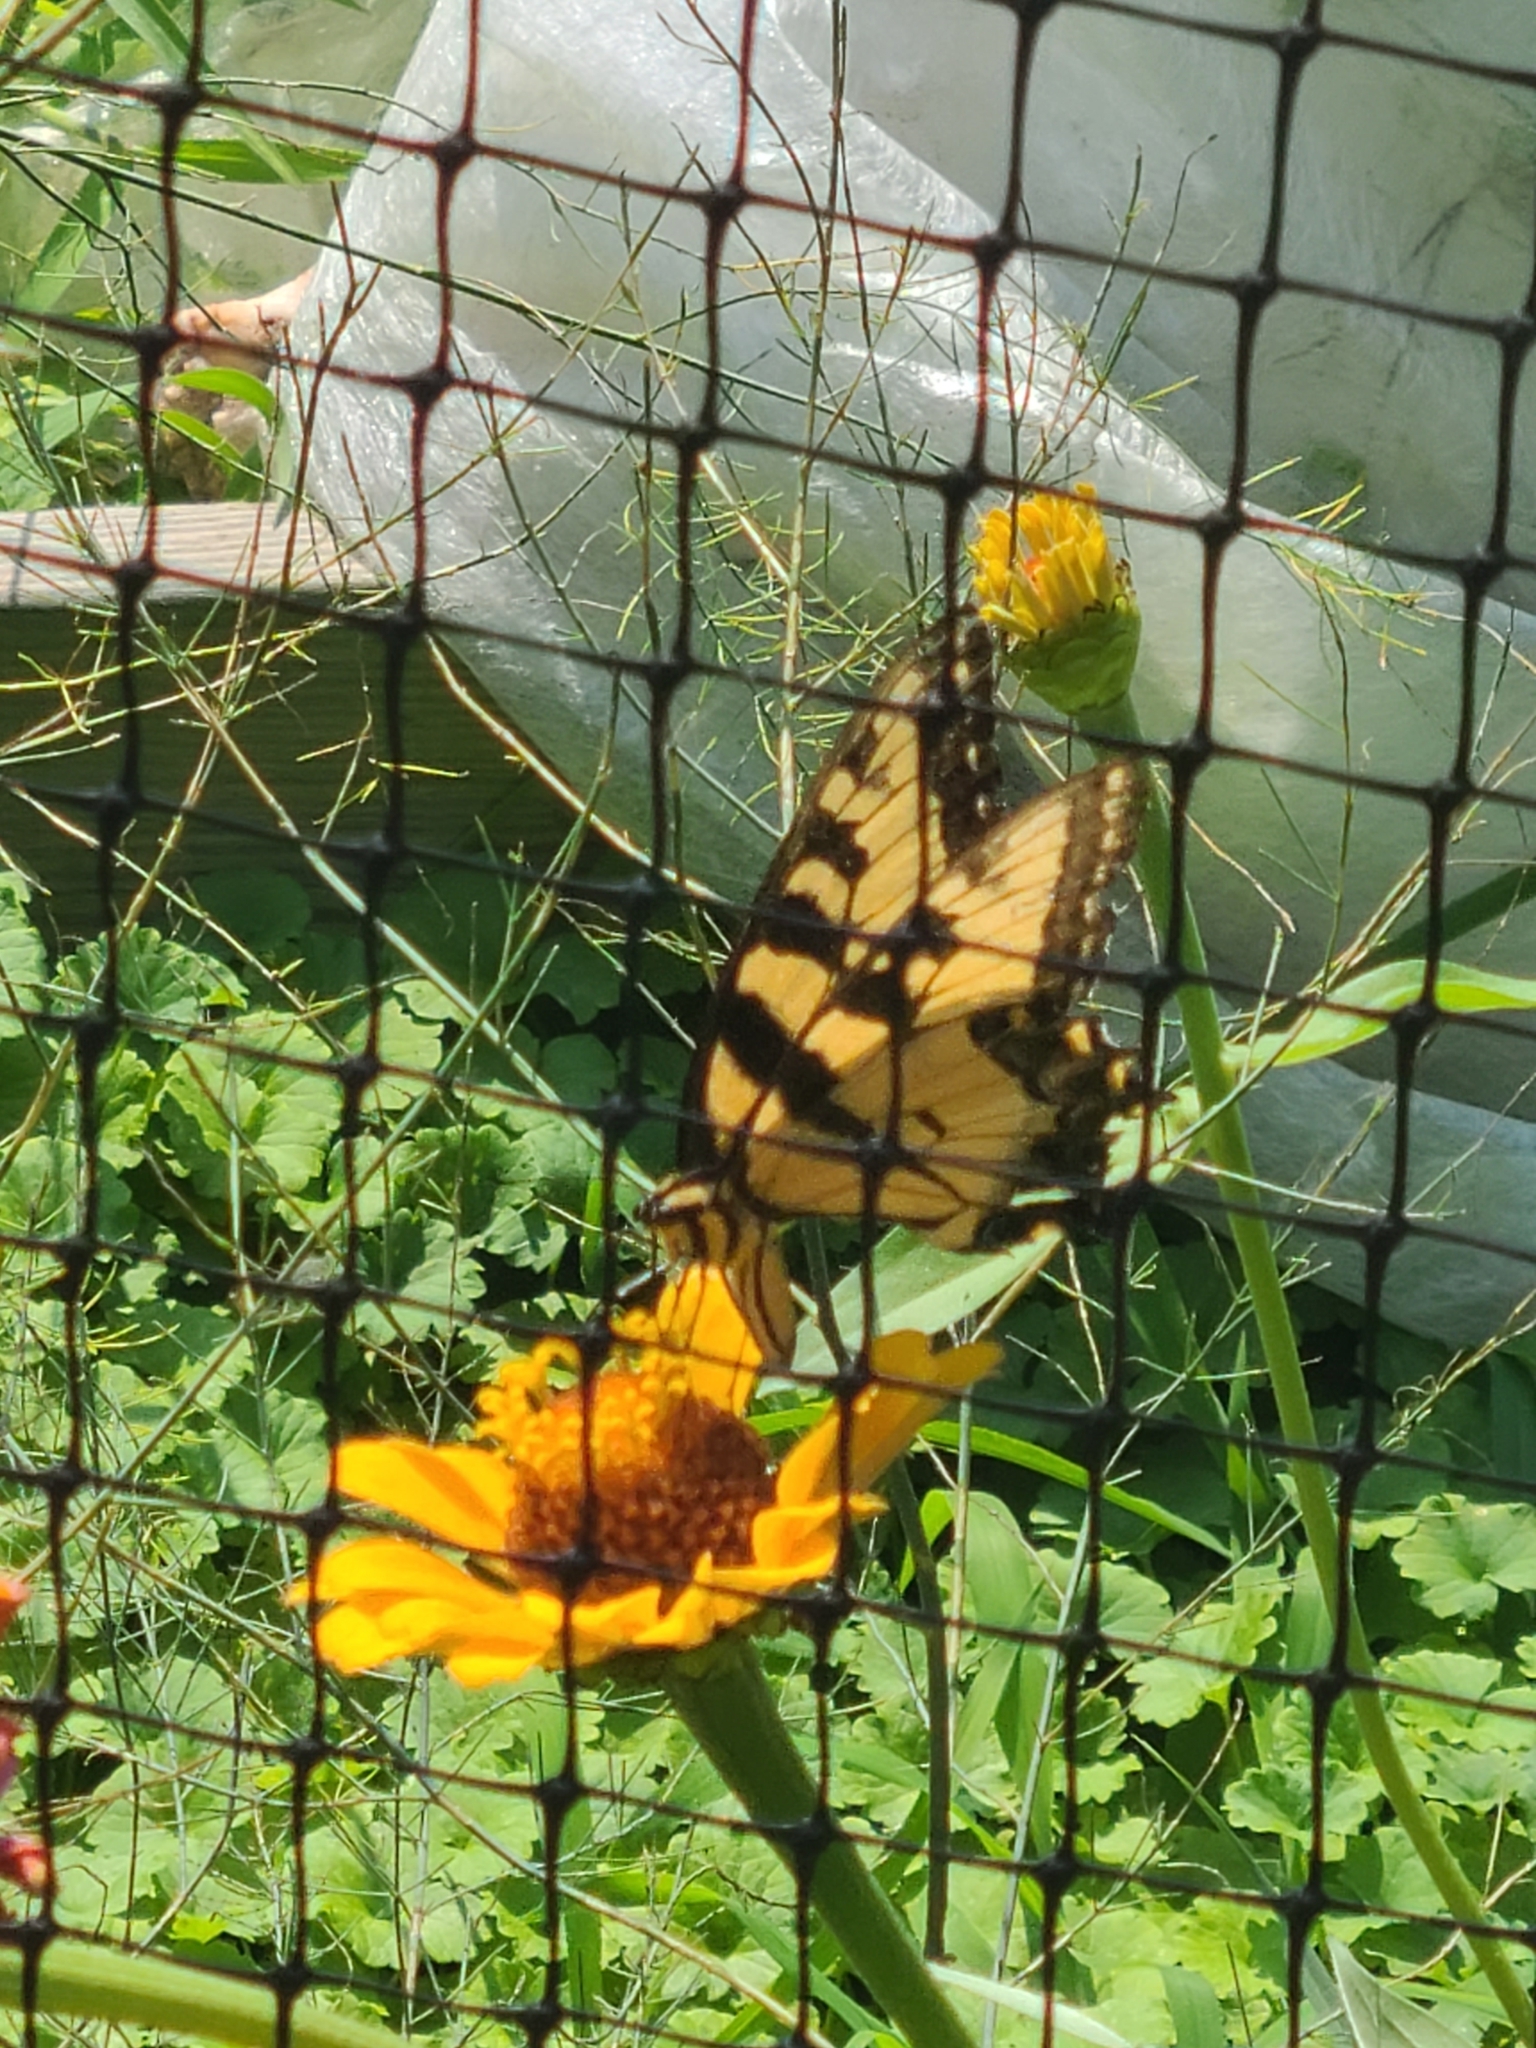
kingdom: Animalia
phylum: Arthropoda
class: Insecta
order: Lepidoptera
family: Papilionidae
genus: Papilio
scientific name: Papilio glaucus
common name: Tiger swallowtail
